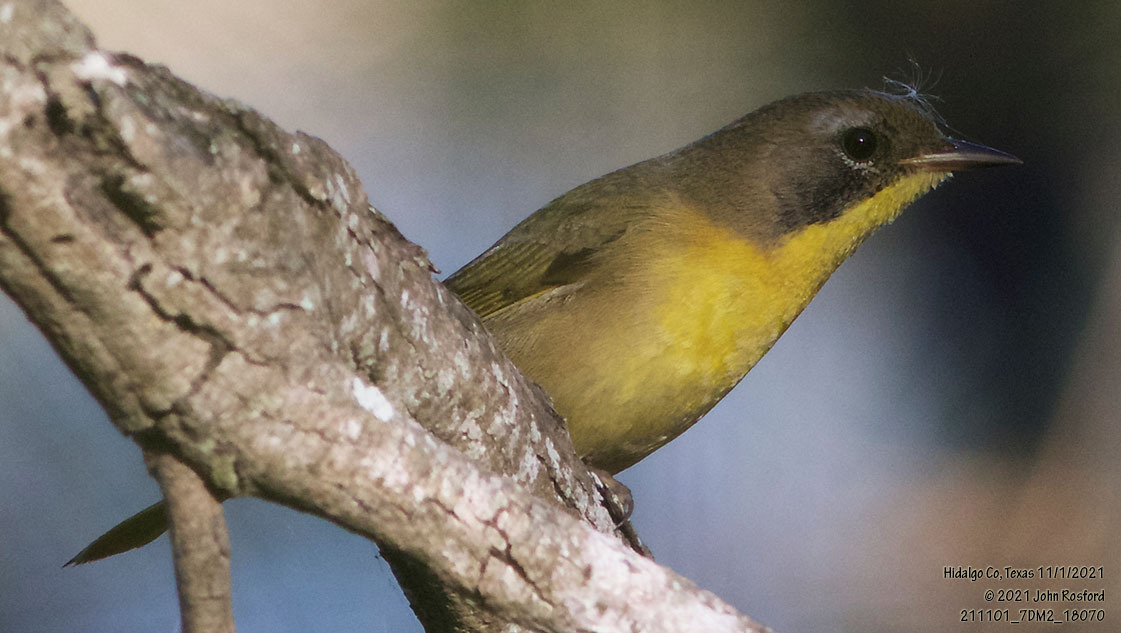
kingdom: Animalia
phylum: Chordata
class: Aves
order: Passeriformes
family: Parulidae
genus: Geothlypis
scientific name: Geothlypis trichas
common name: Common yellowthroat
